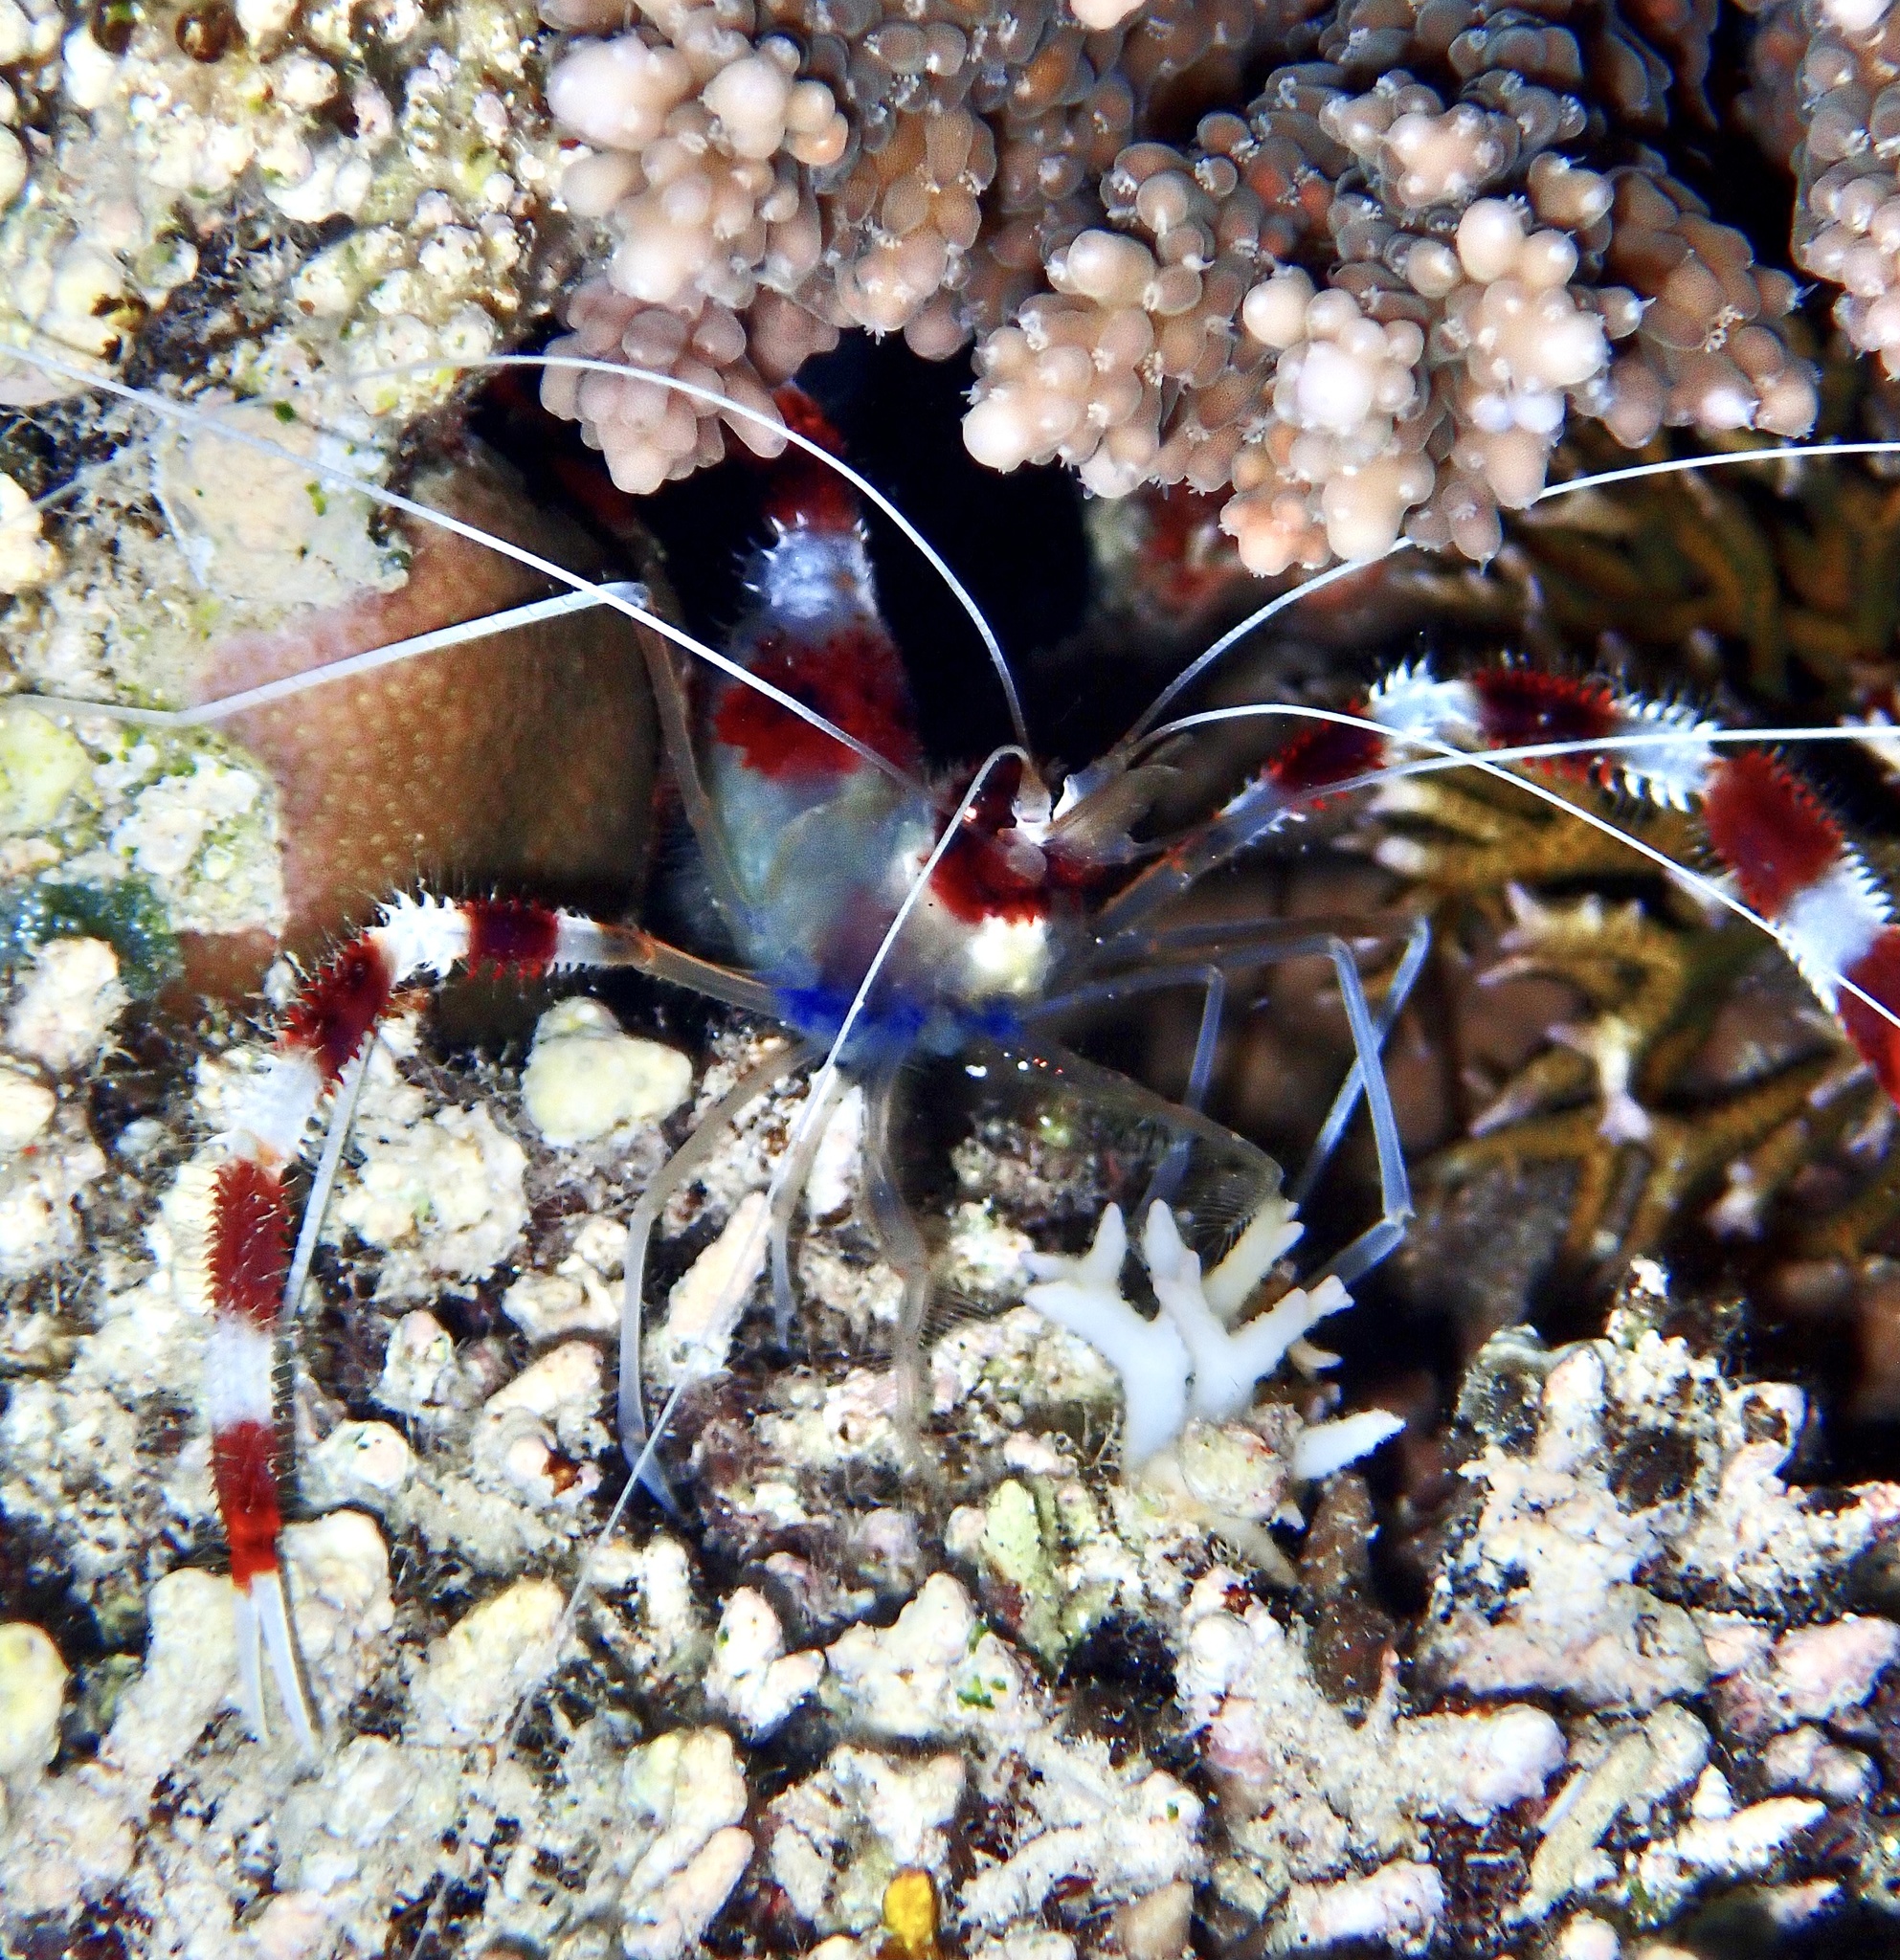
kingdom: Animalia
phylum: Arthropoda
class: Malacostraca
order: Decapoda
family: Stenopodidae
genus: Stenopus
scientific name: Stenopus hispidus
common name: Banded coral shrimp
